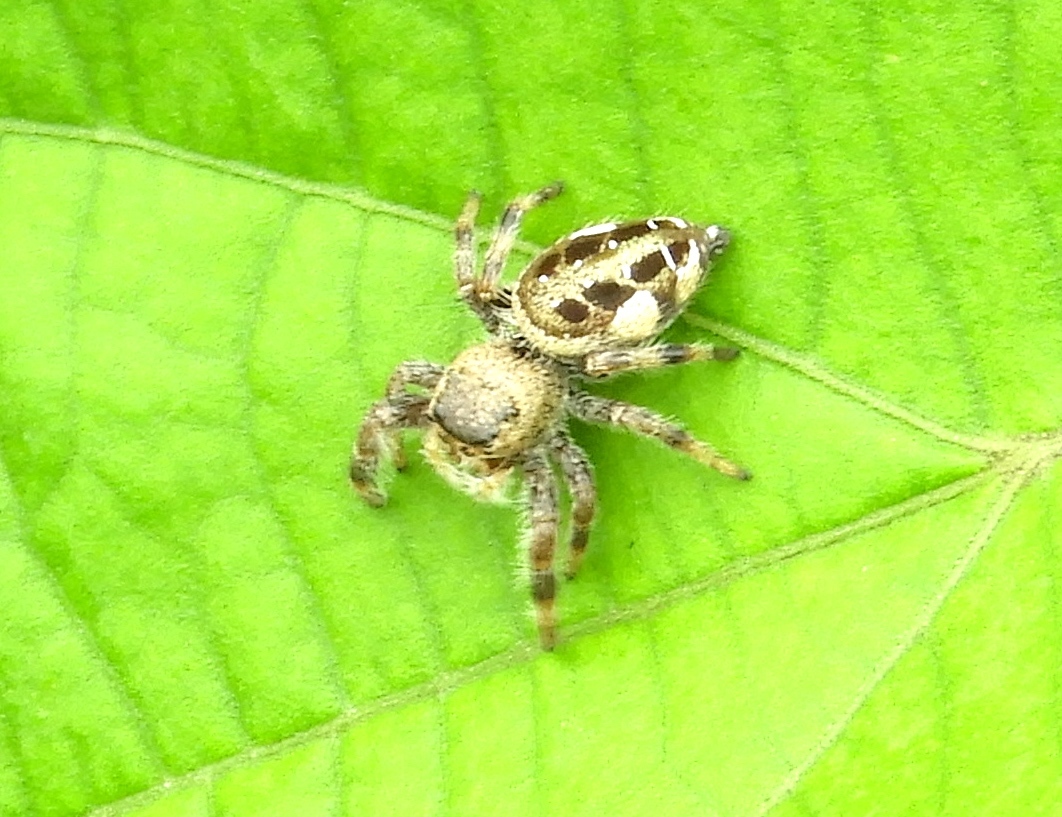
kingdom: Animalia
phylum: Arthropoda
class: Arachnida
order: Araneae
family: Salticidae
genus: Paraphidippus
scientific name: Paraphidippus
